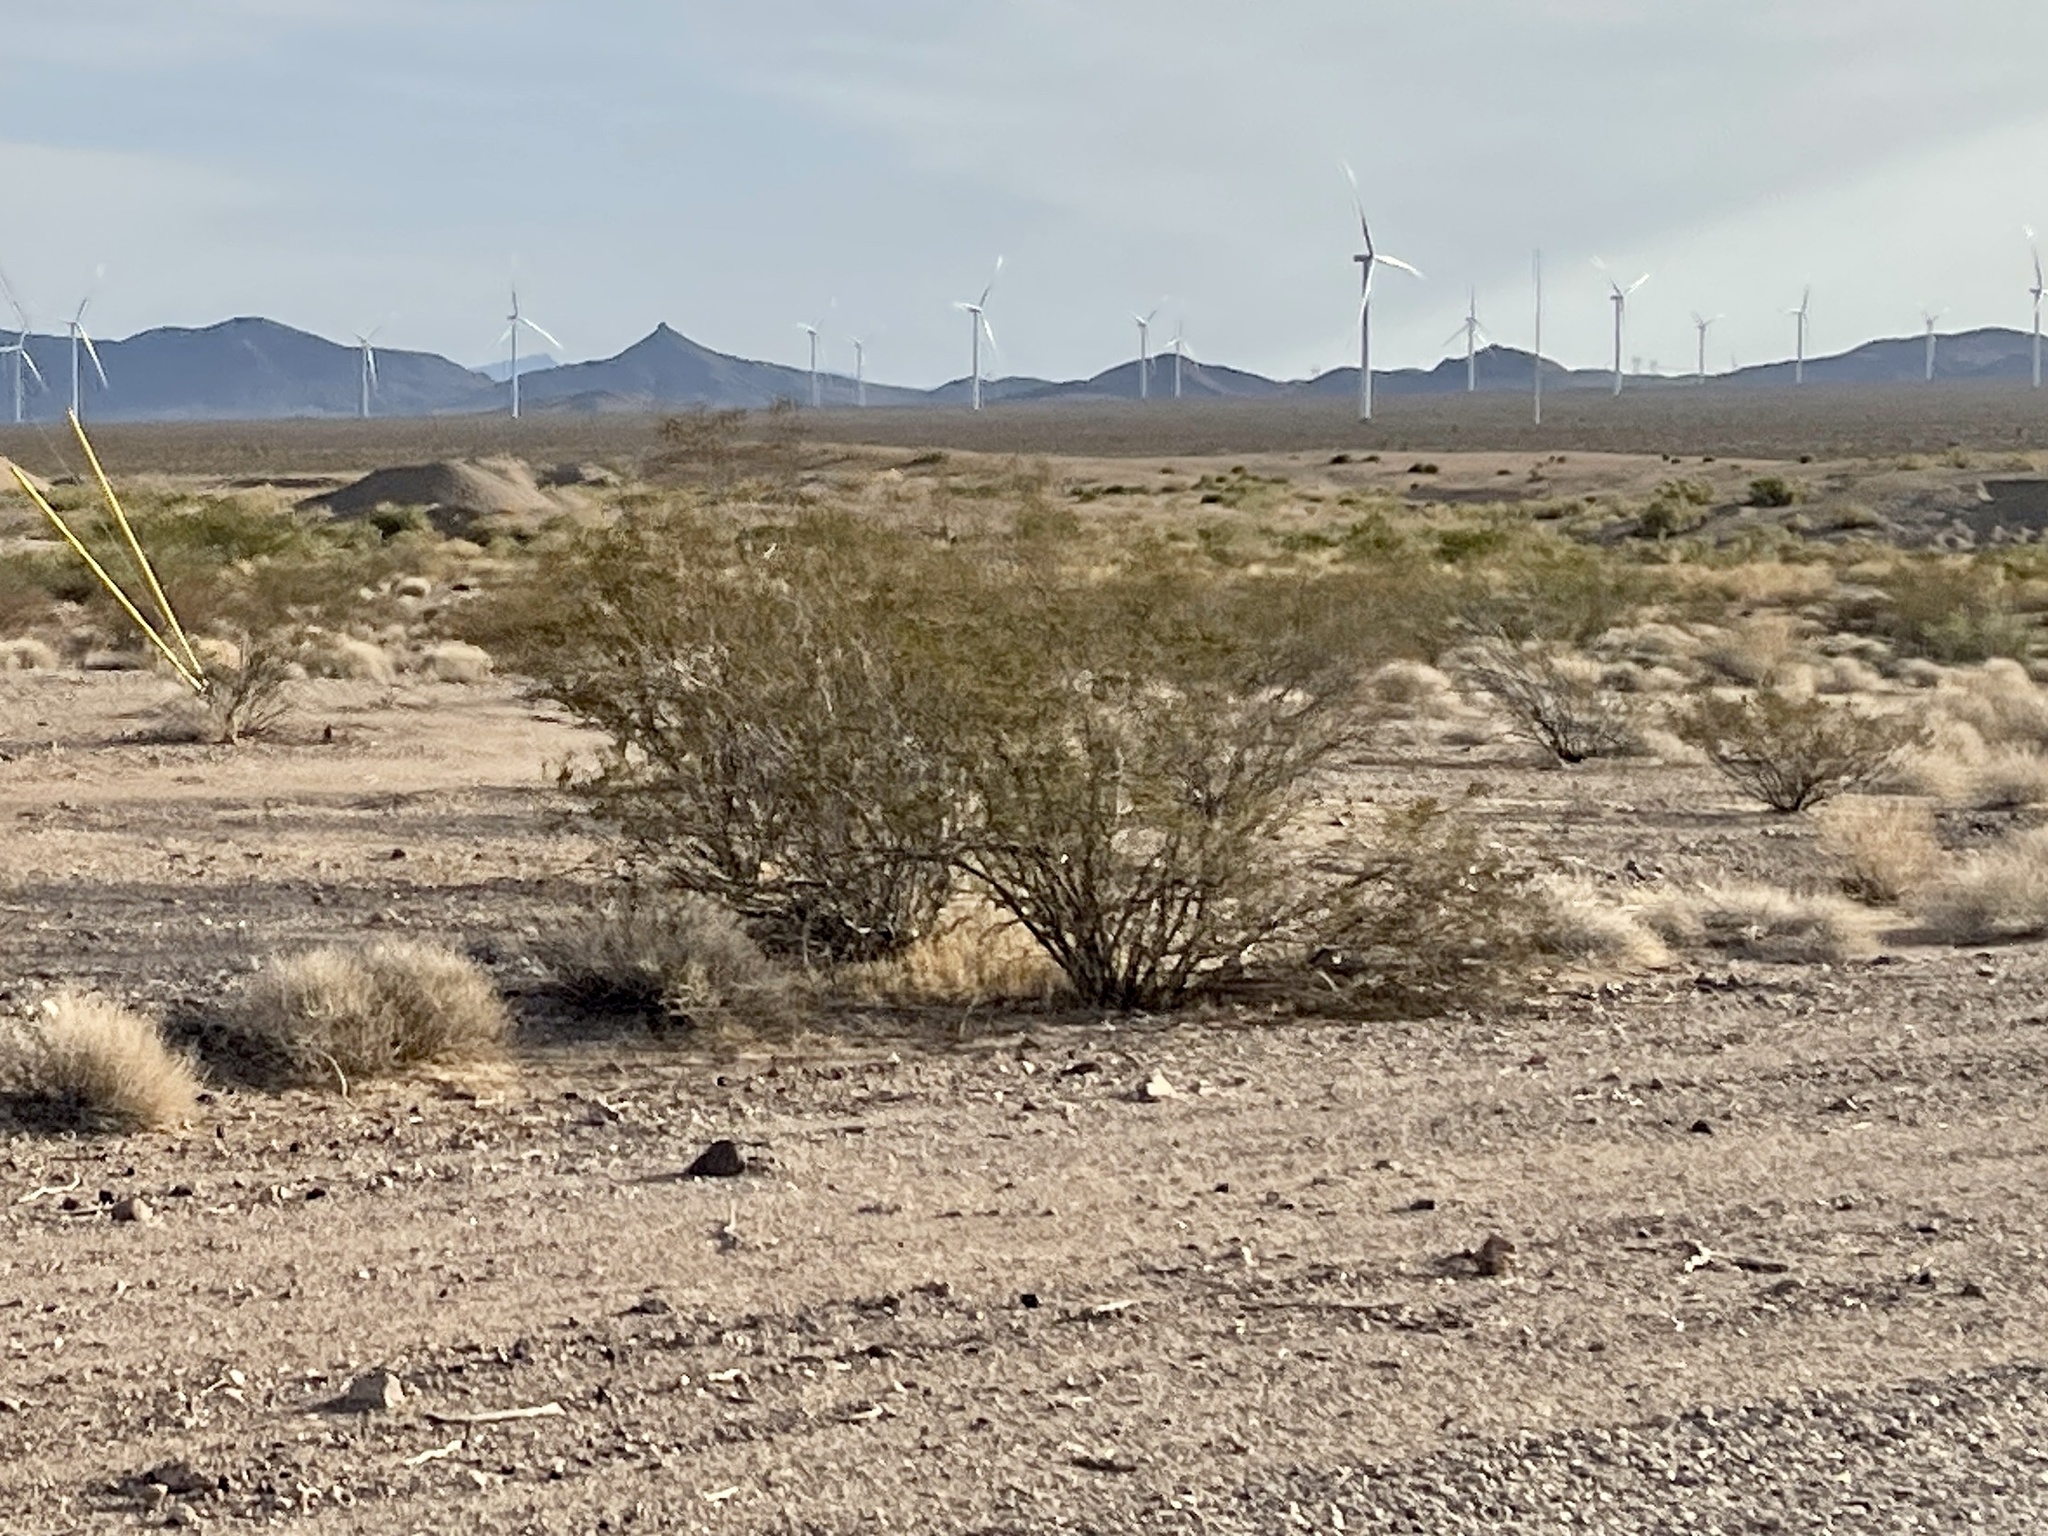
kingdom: Plantae
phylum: Tracheophyta
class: Magnoliopsida
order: Zygophyllales
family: Zygophyllaceae
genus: Larrea
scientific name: Larrea tridentata
